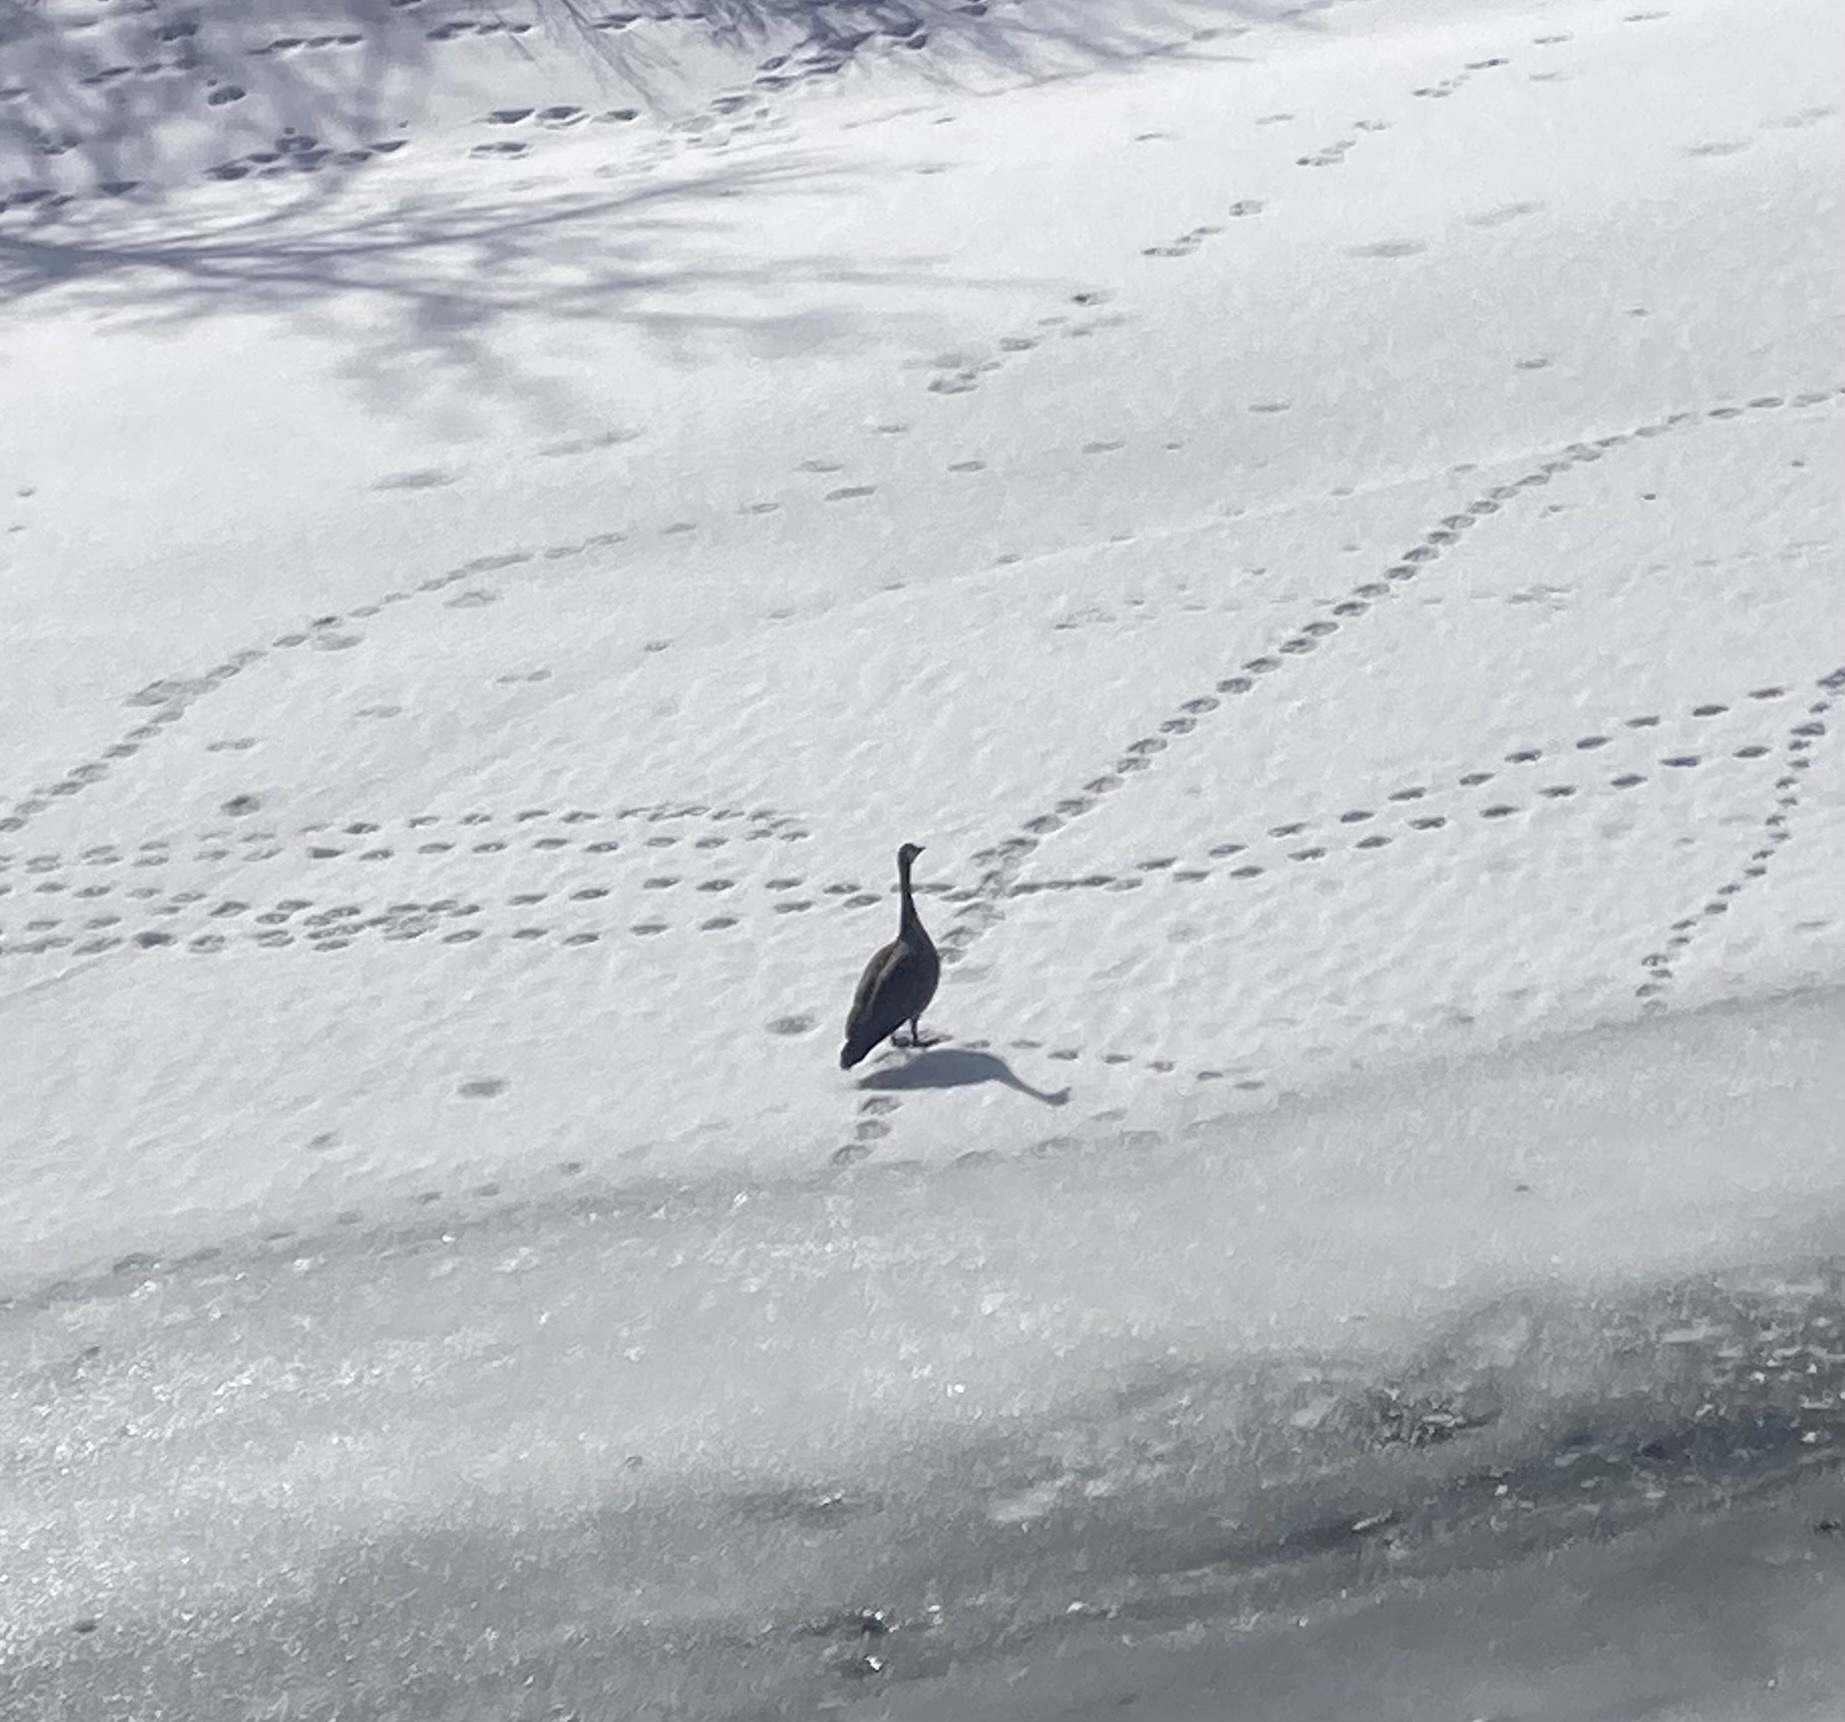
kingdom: Animalia
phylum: Chordata
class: Aves
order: Anseriformes
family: Anatidae
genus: Branta
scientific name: Branta canadensis
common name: Canada goose
